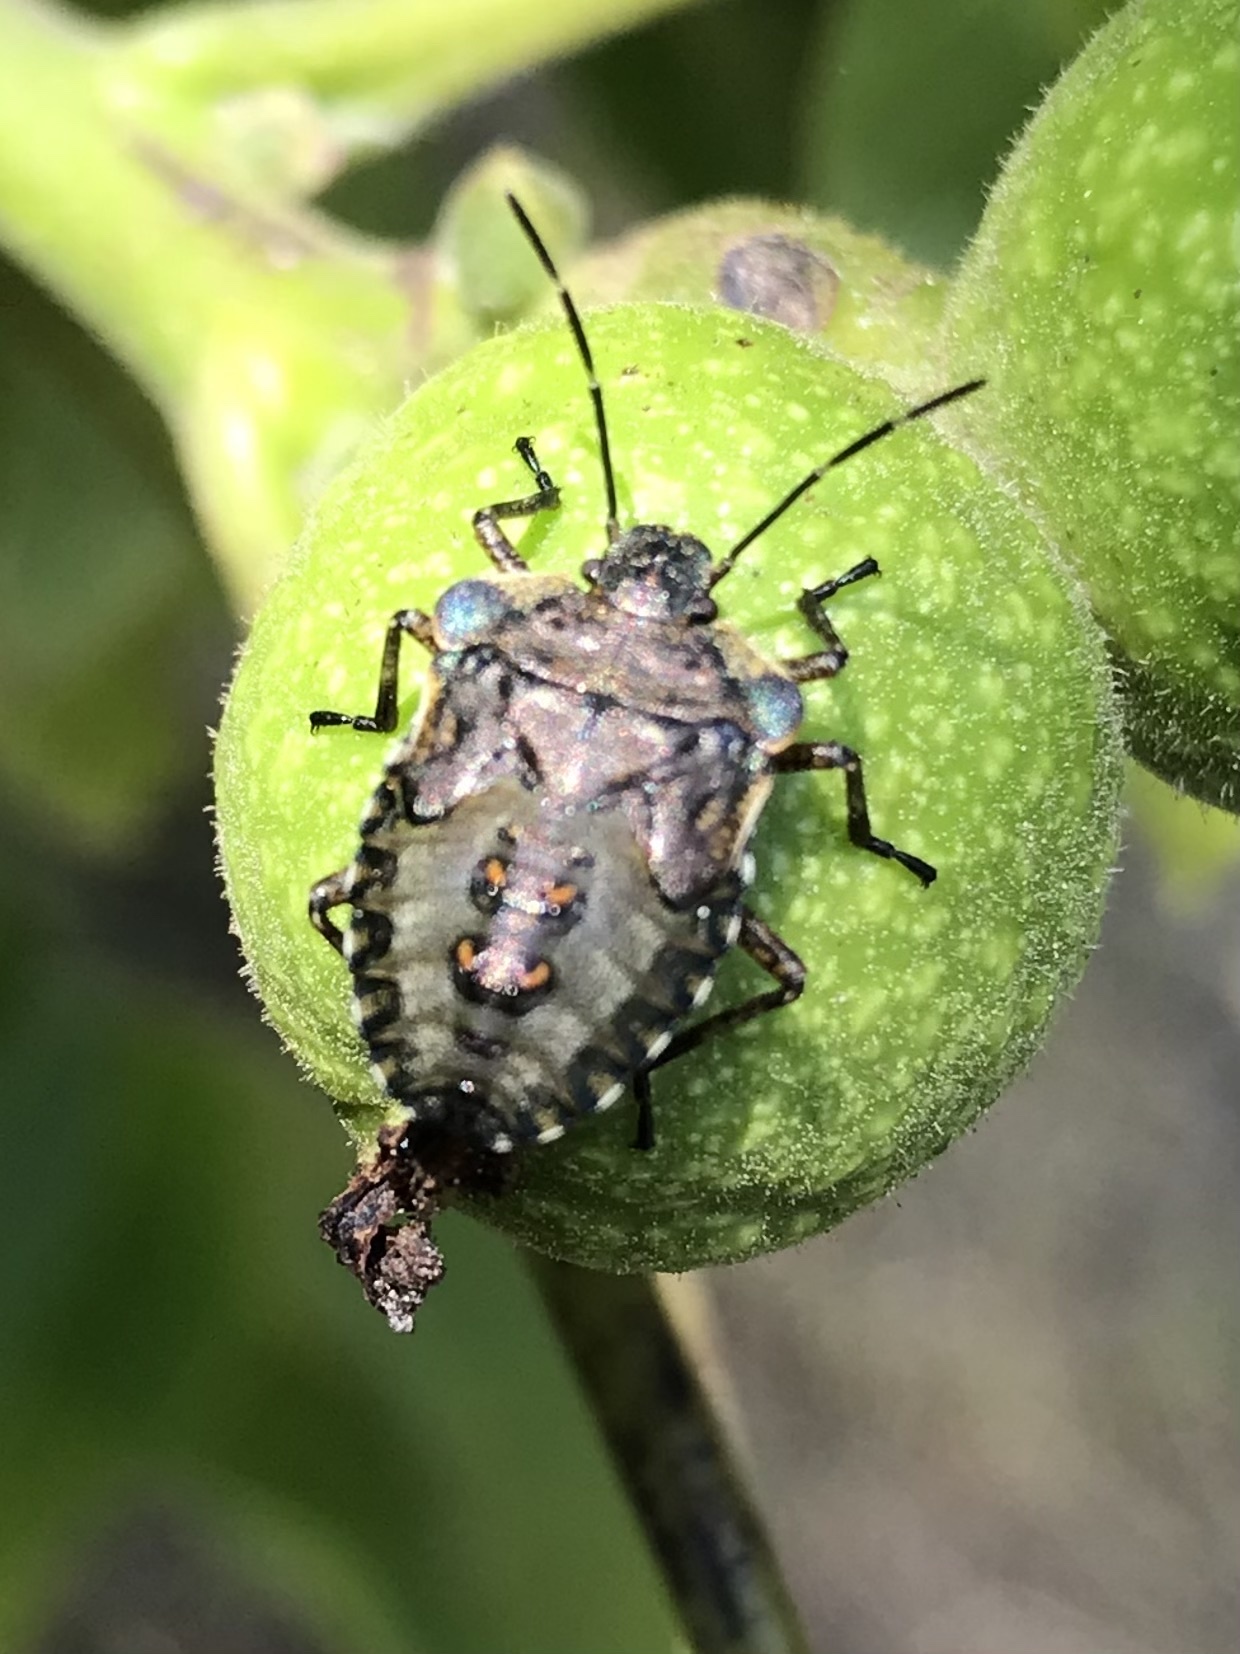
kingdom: Animalia
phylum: Arthropoda
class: Insecta
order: Hemiptera
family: Pentatomidae
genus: Pentatoma
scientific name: Pentatoma rufipes
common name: Forest bug
